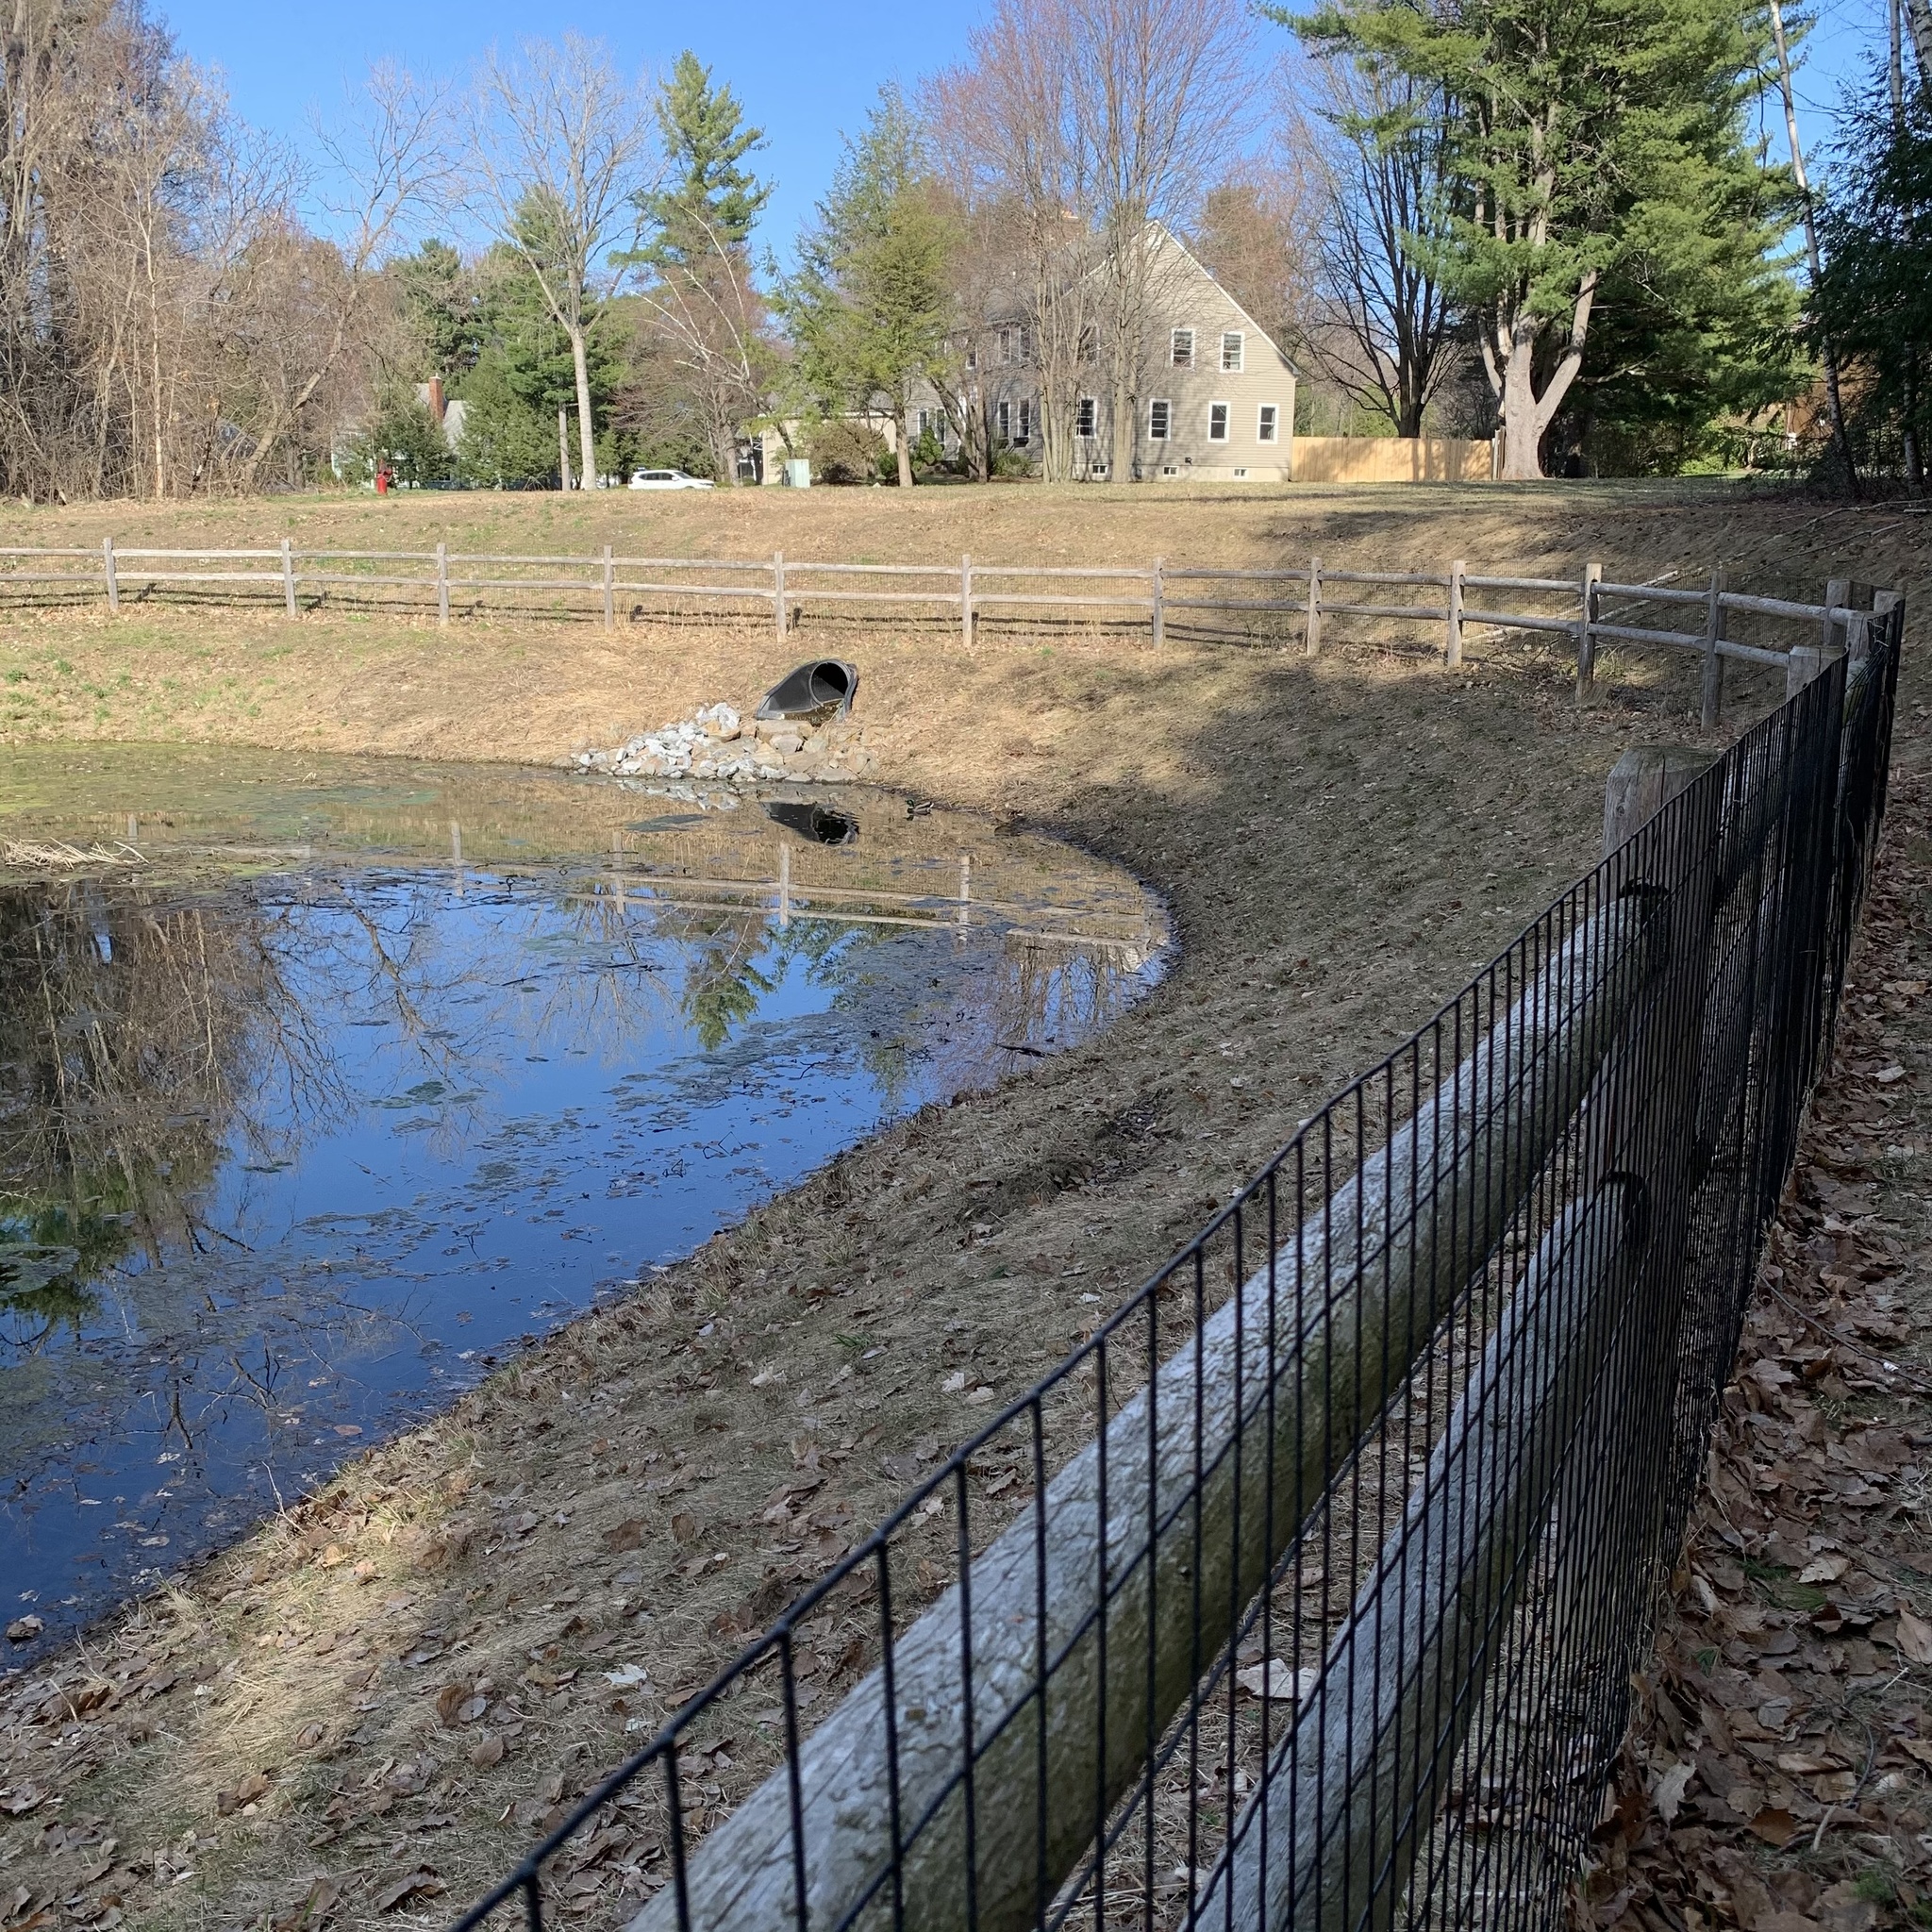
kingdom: Animalia
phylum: Chordata
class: Aves
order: Anseriformes
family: Anatidae
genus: Anas
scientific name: Anas platyrhynchos
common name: Mallard
